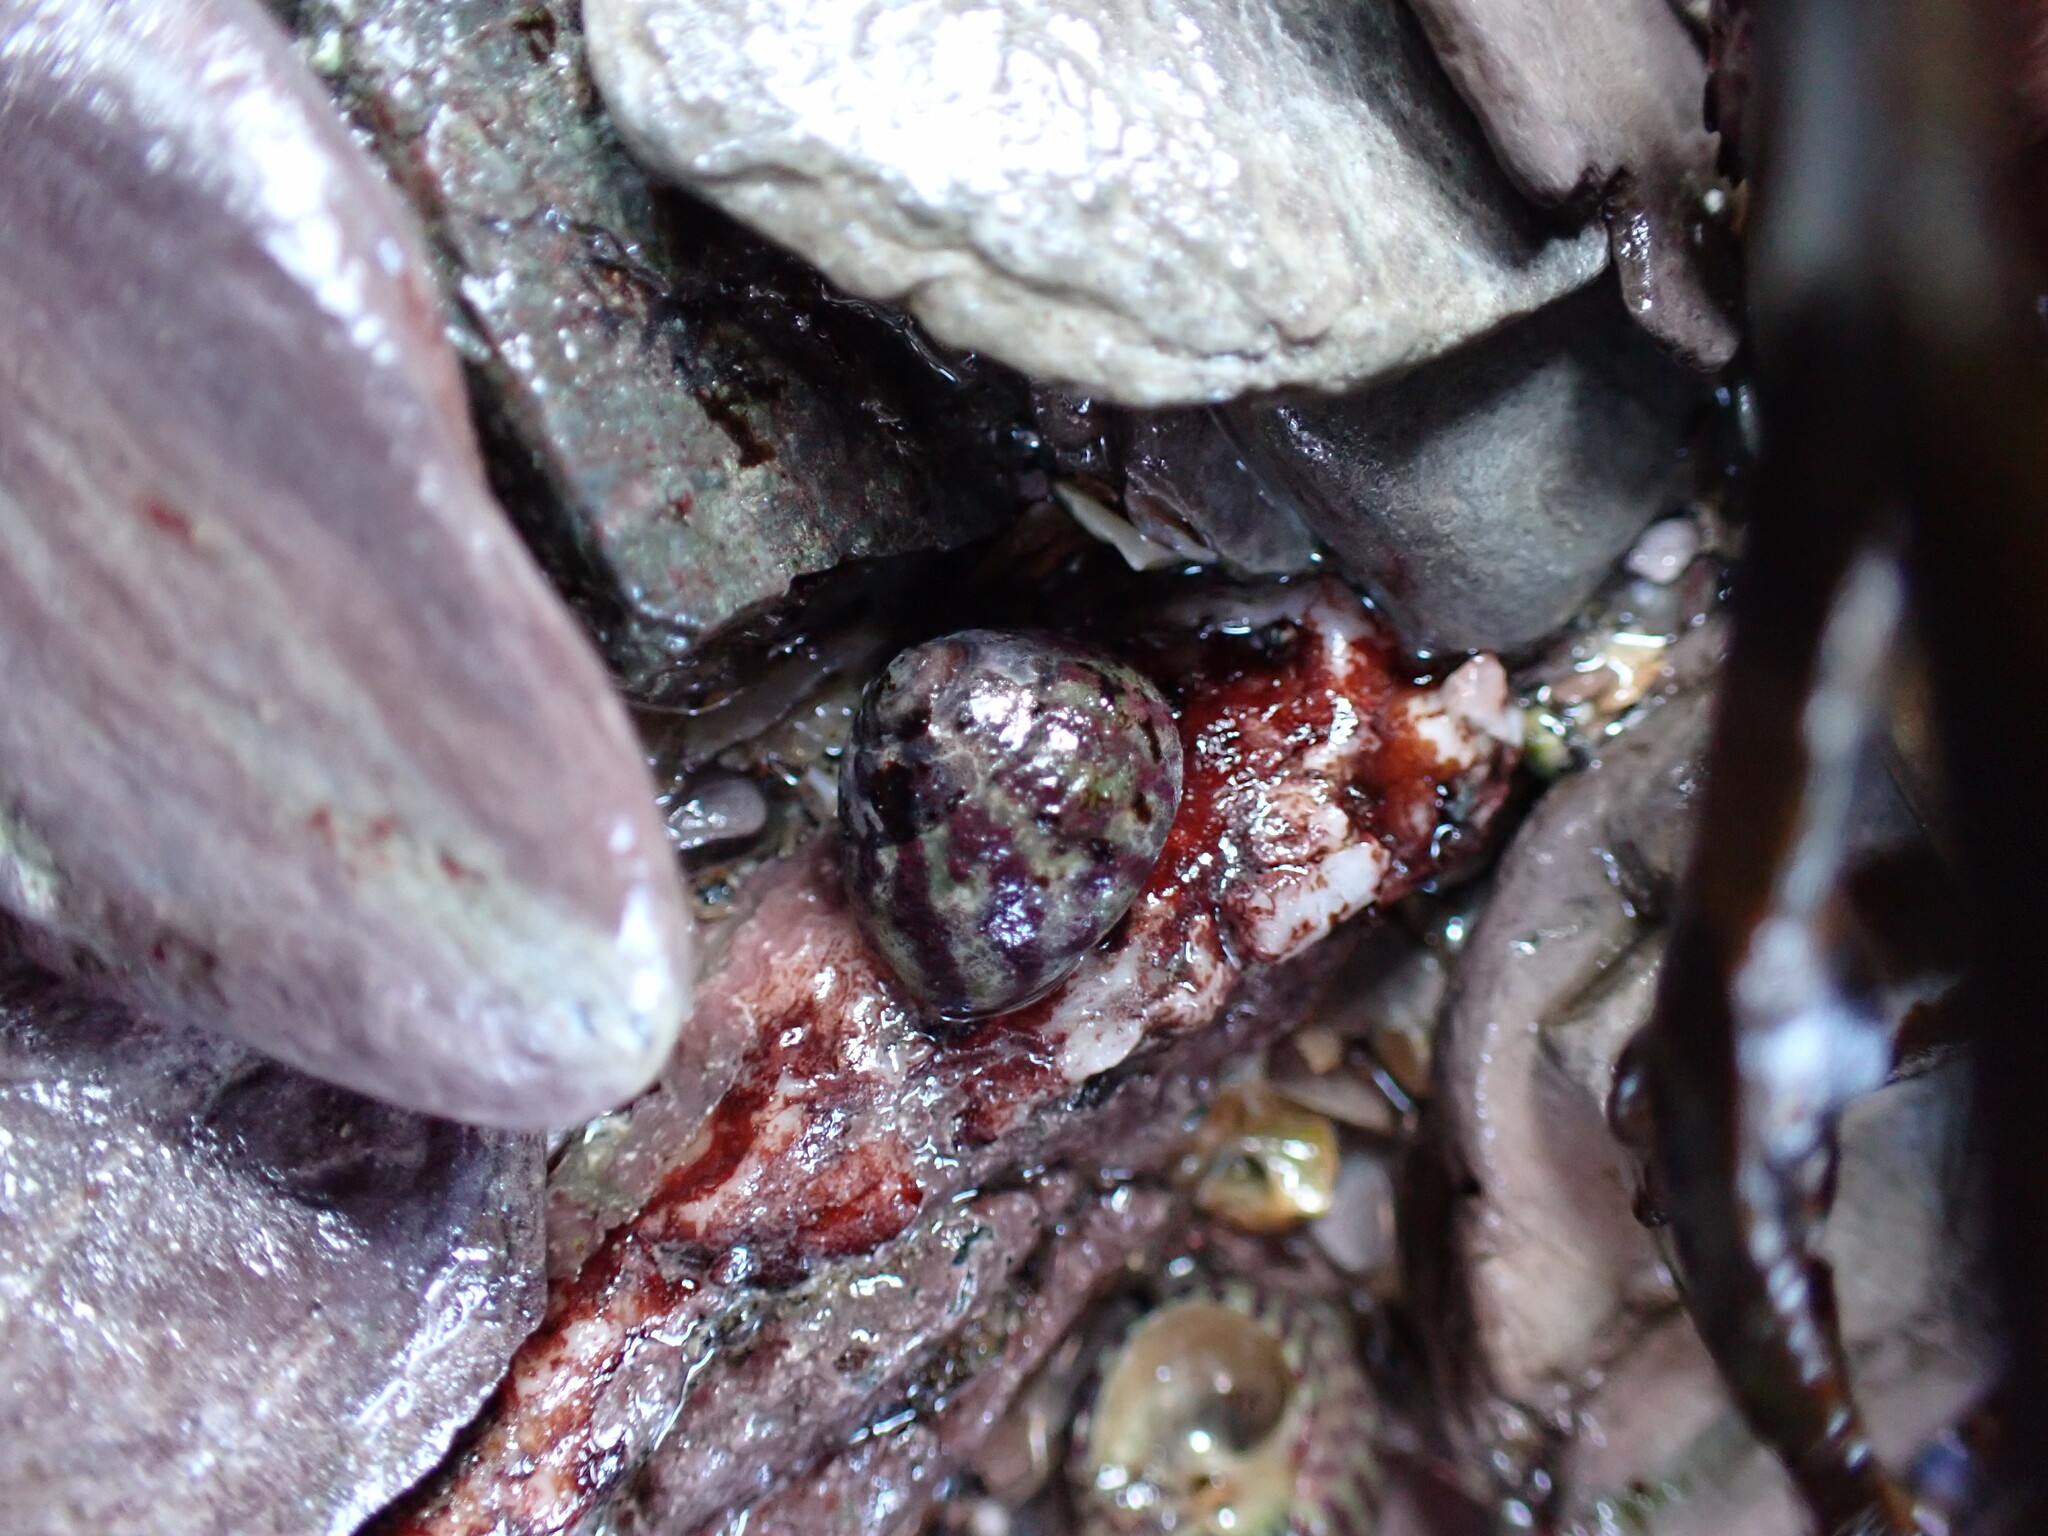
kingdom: Animalia
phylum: Mollusca
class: Gastropoda
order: Trochida
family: Trochidae
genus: Steromphala
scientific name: Steromphala umbilicalis
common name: Flat top shell
